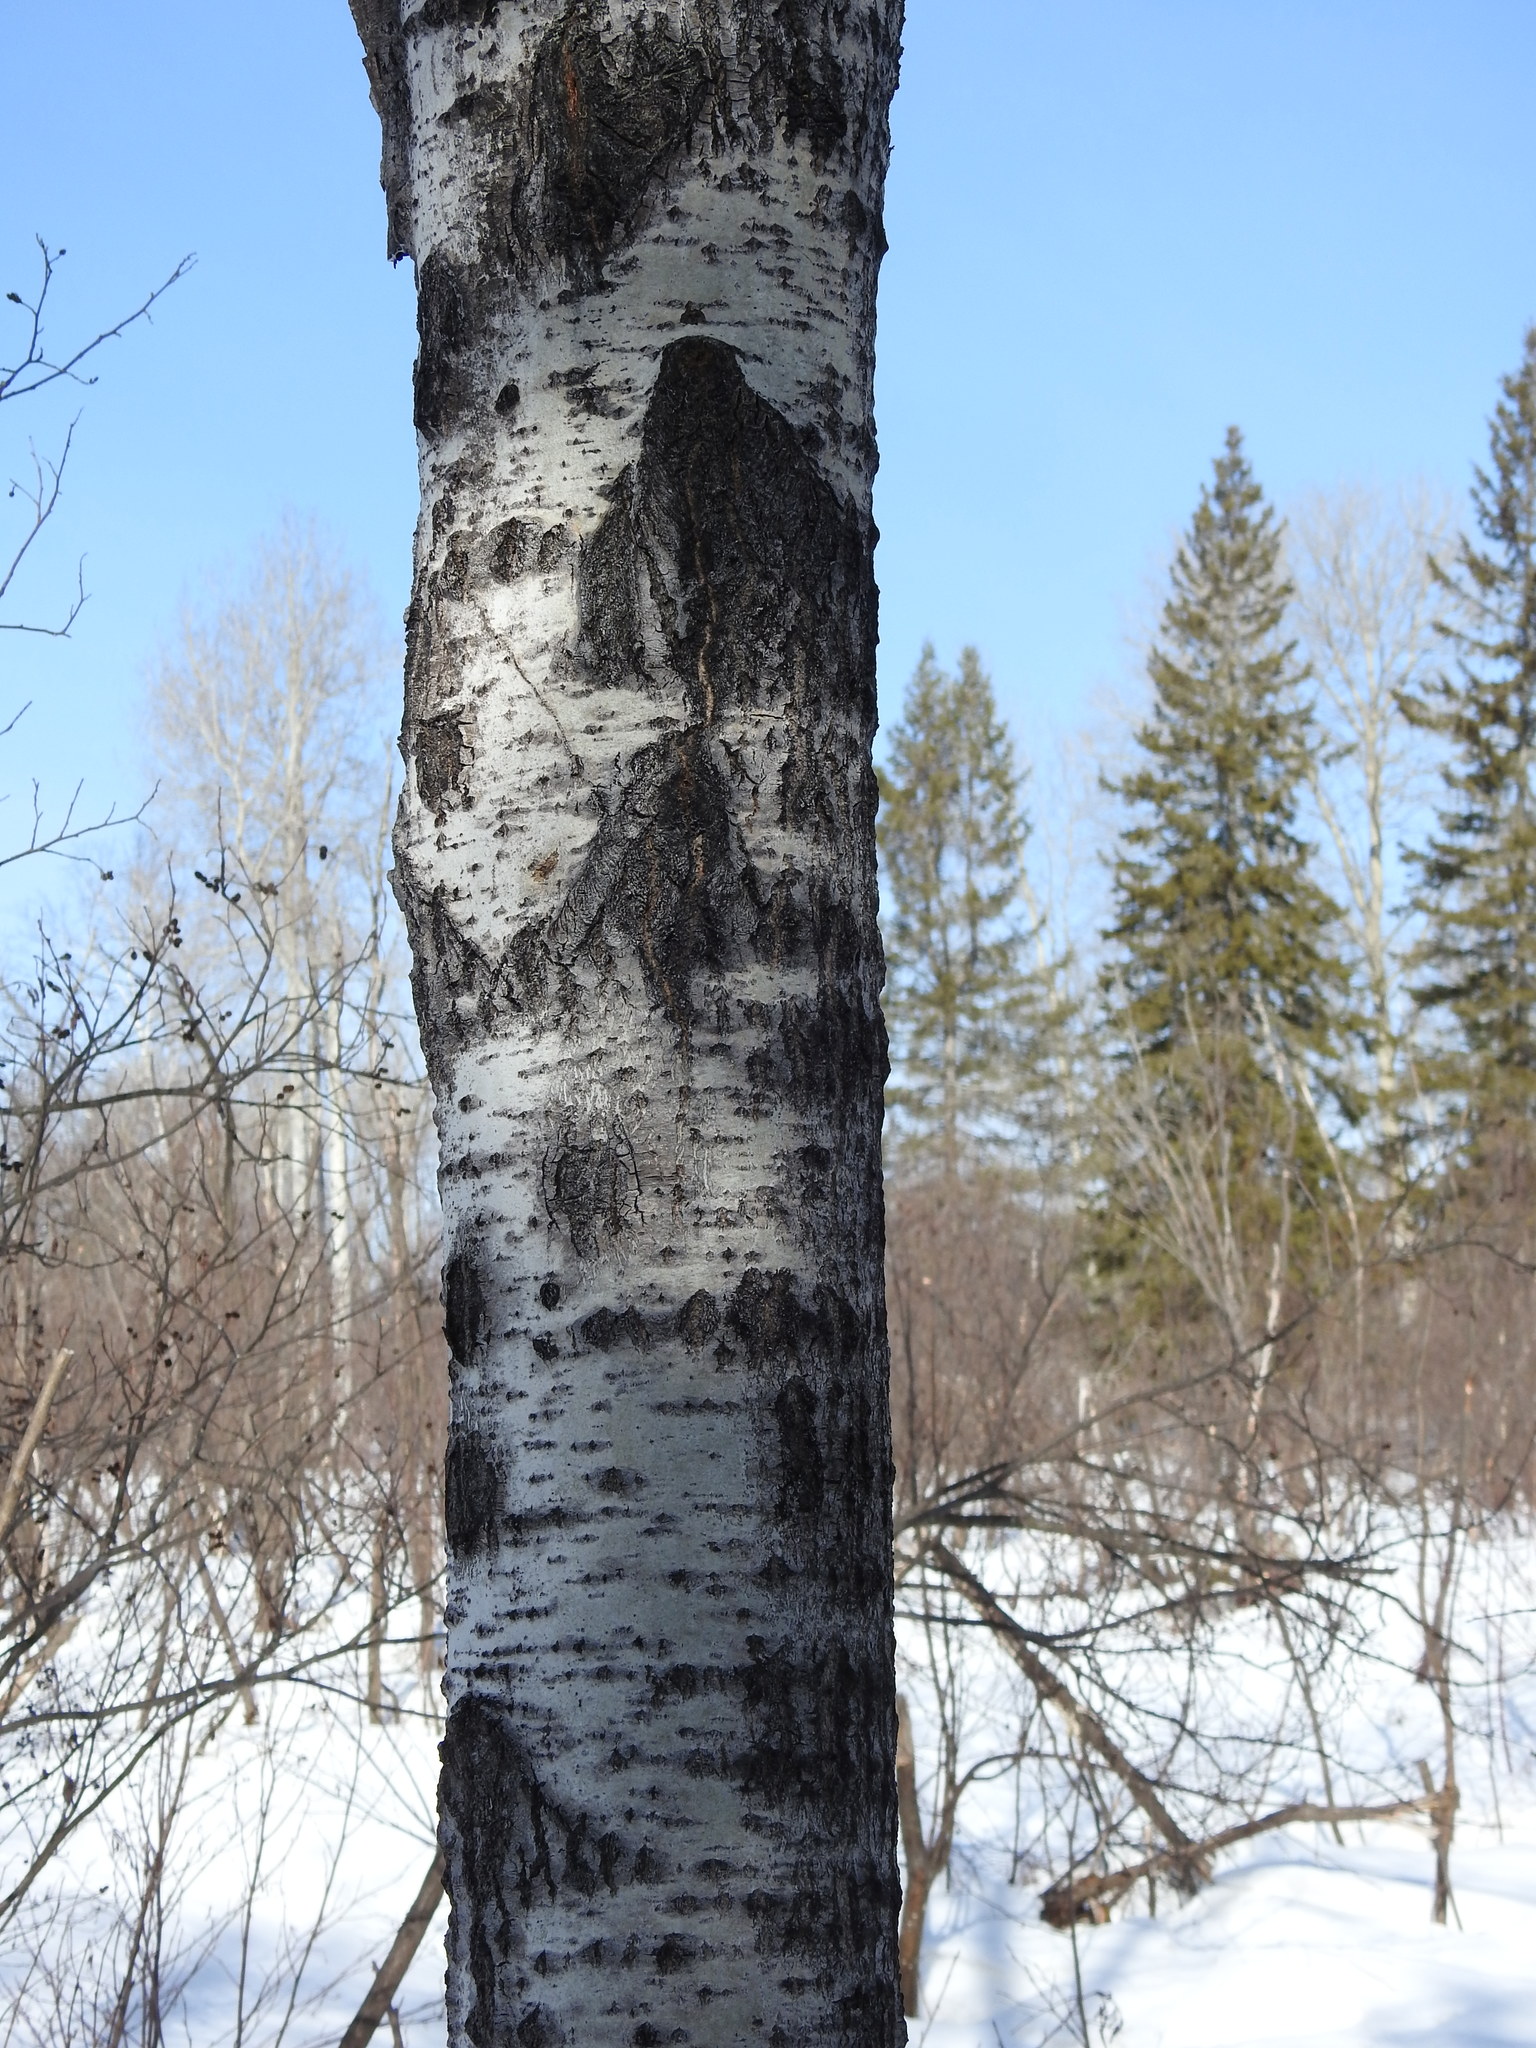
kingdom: Plantae
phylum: Tracheophyta
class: Magnoliopsida
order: Malpighiales
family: Salicaceae
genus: Populus
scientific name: Populus tremuloides
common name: Quaking aspen
